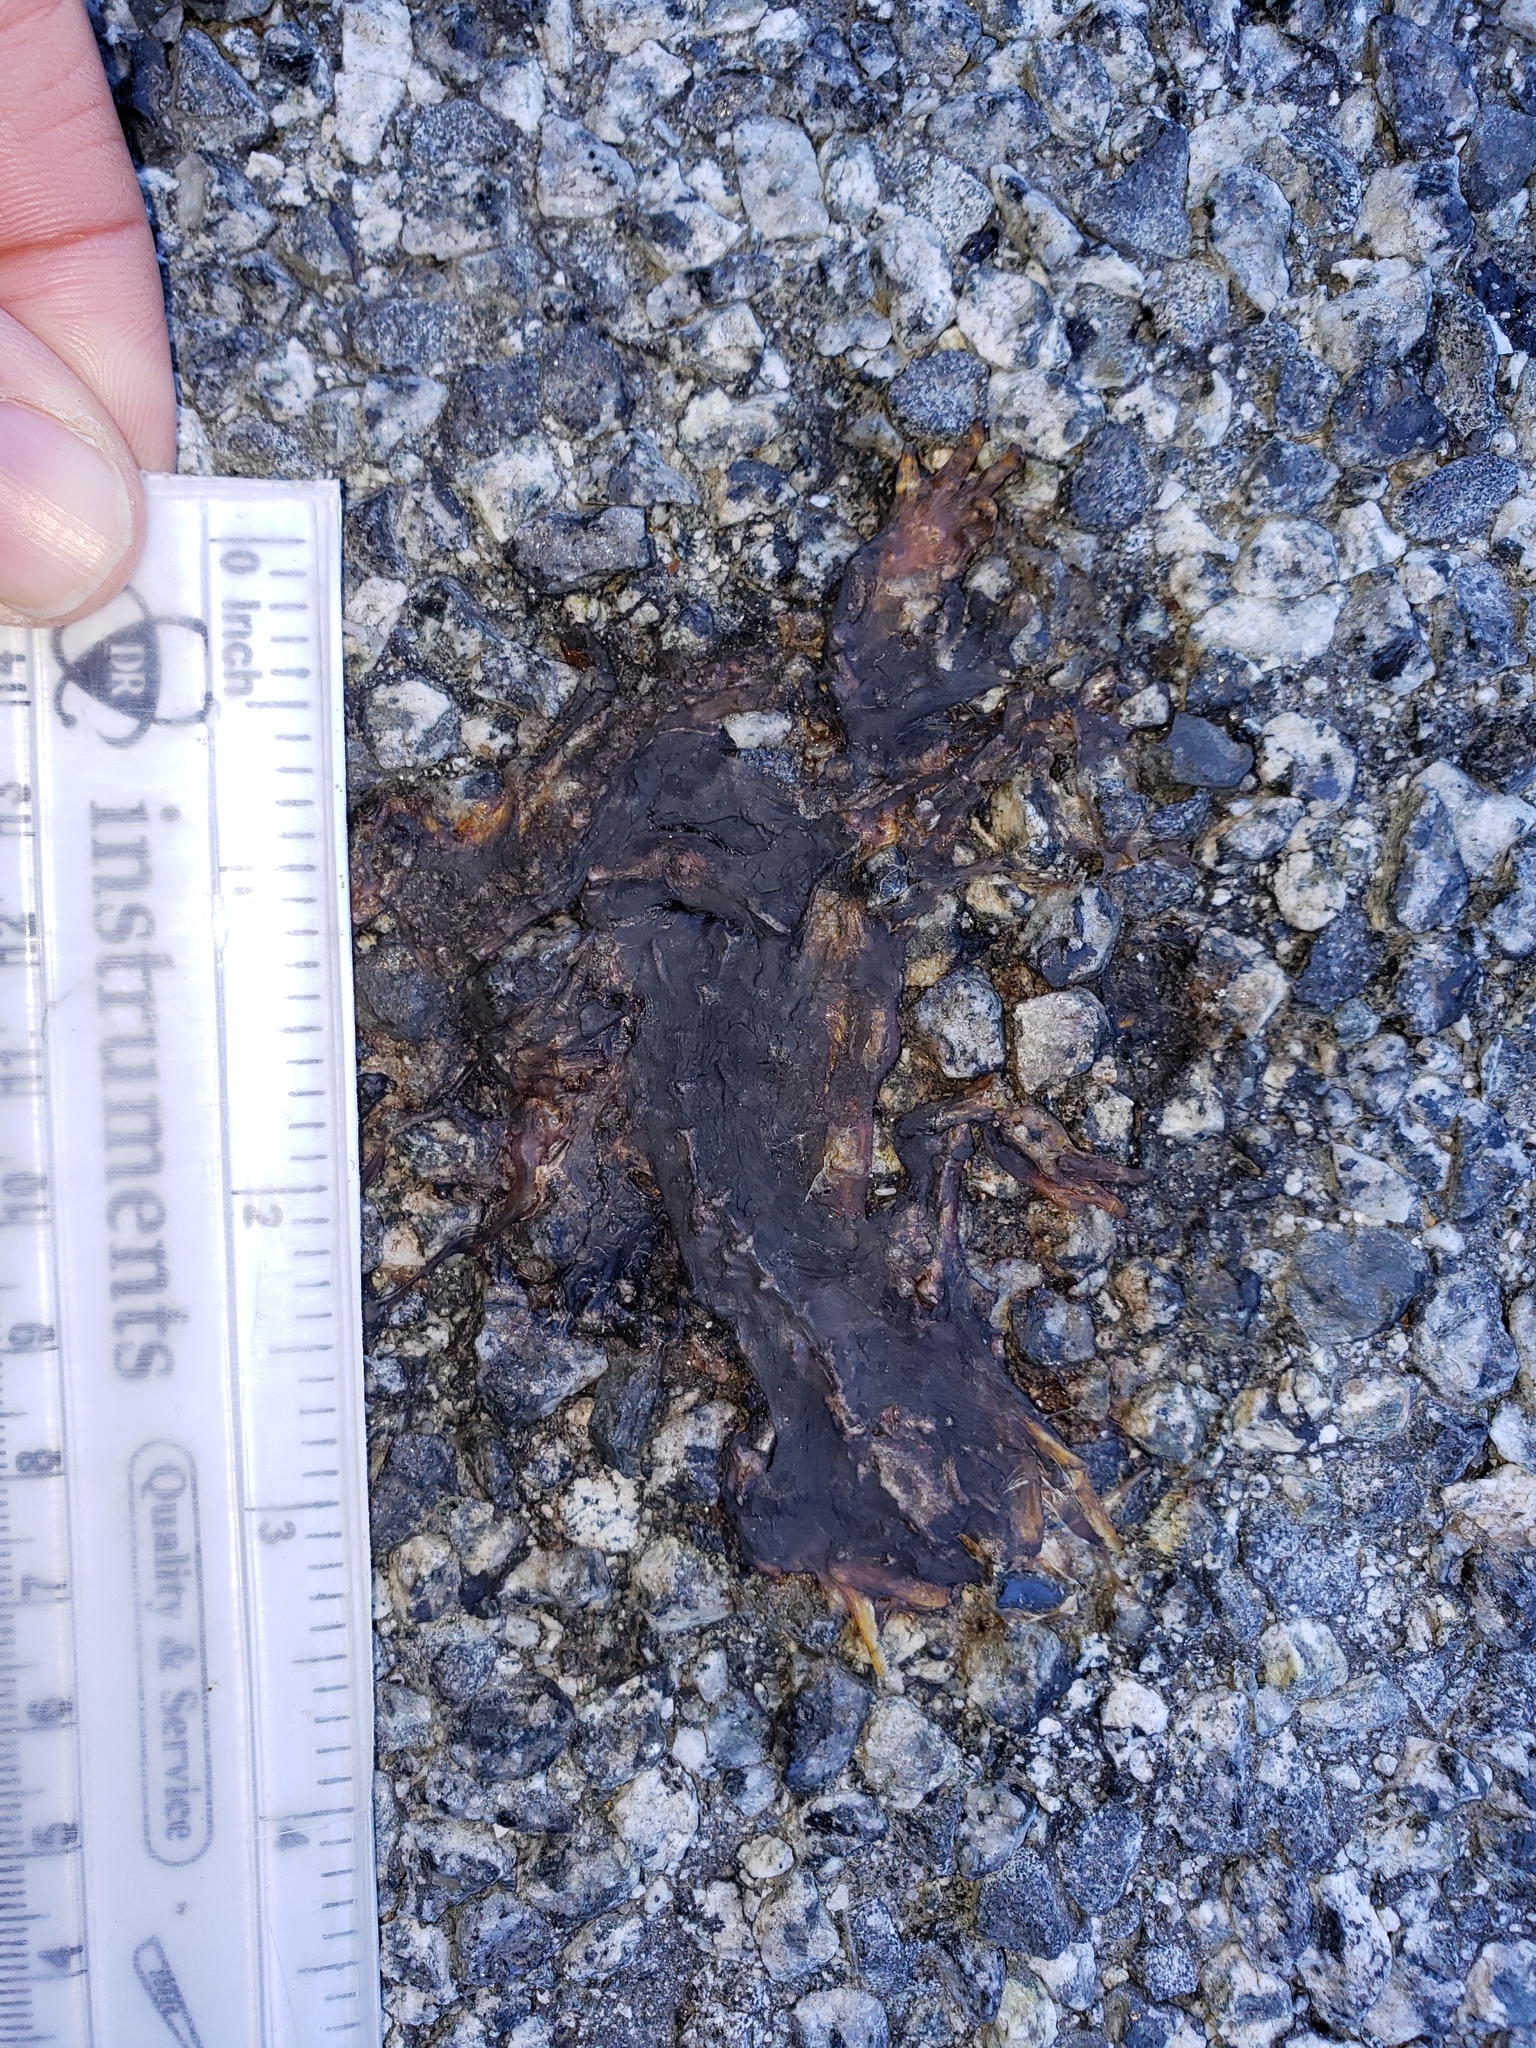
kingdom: Animalia
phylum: Chordata
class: Amphibia
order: Caudata
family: Salamandridae
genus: Taricha
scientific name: Taricha
